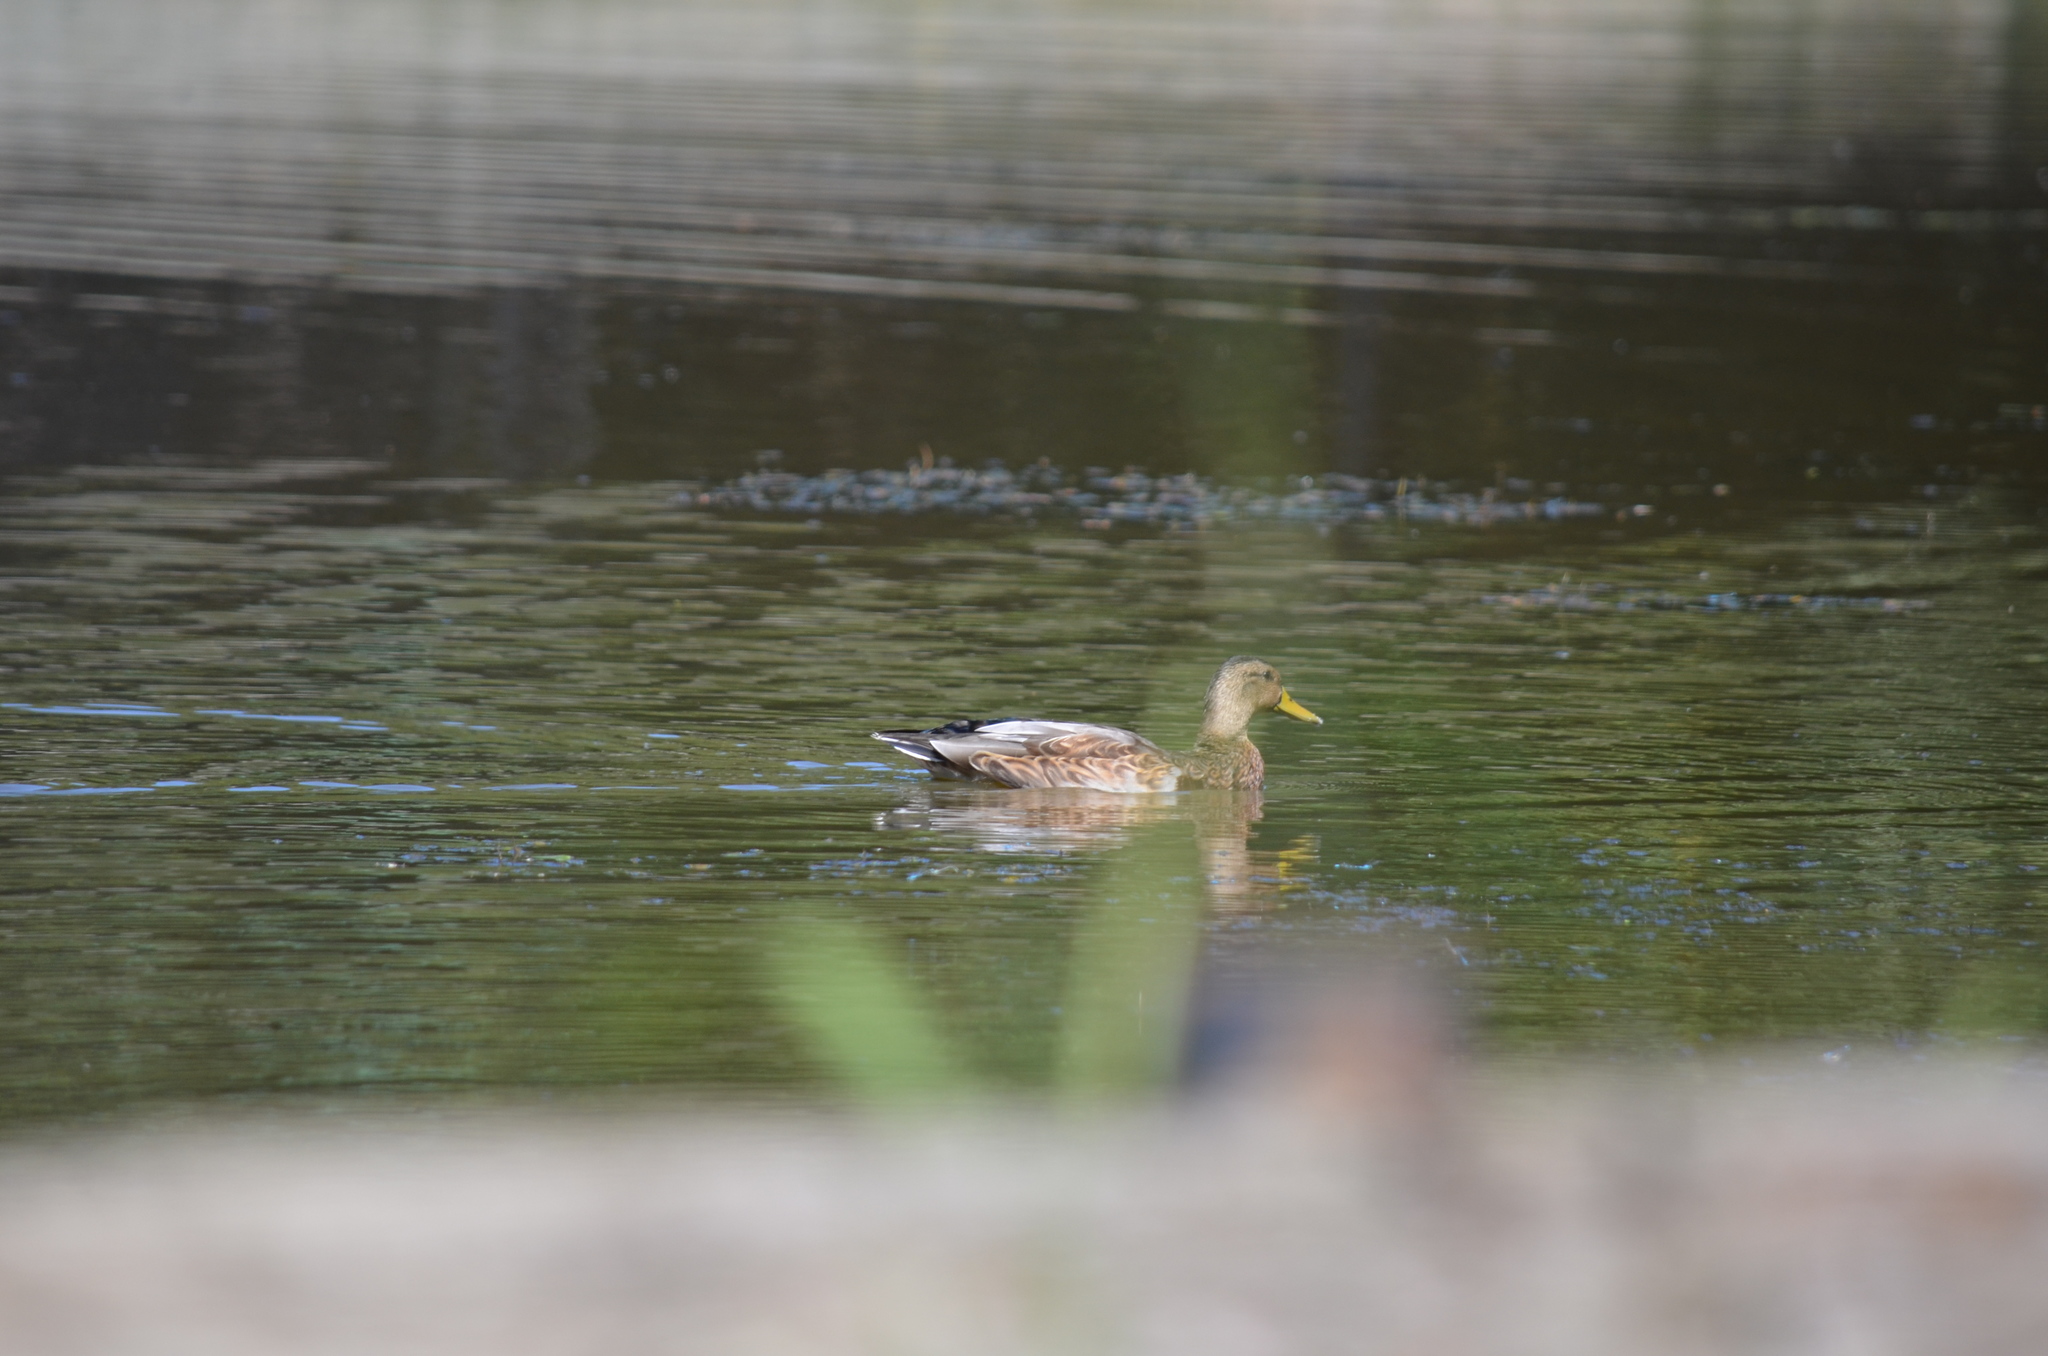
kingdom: Animalia
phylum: Chordata
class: Aves
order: Anseriformes
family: Anatidae
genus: Anas
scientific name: Anas platyrhynchos
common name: Mallard
